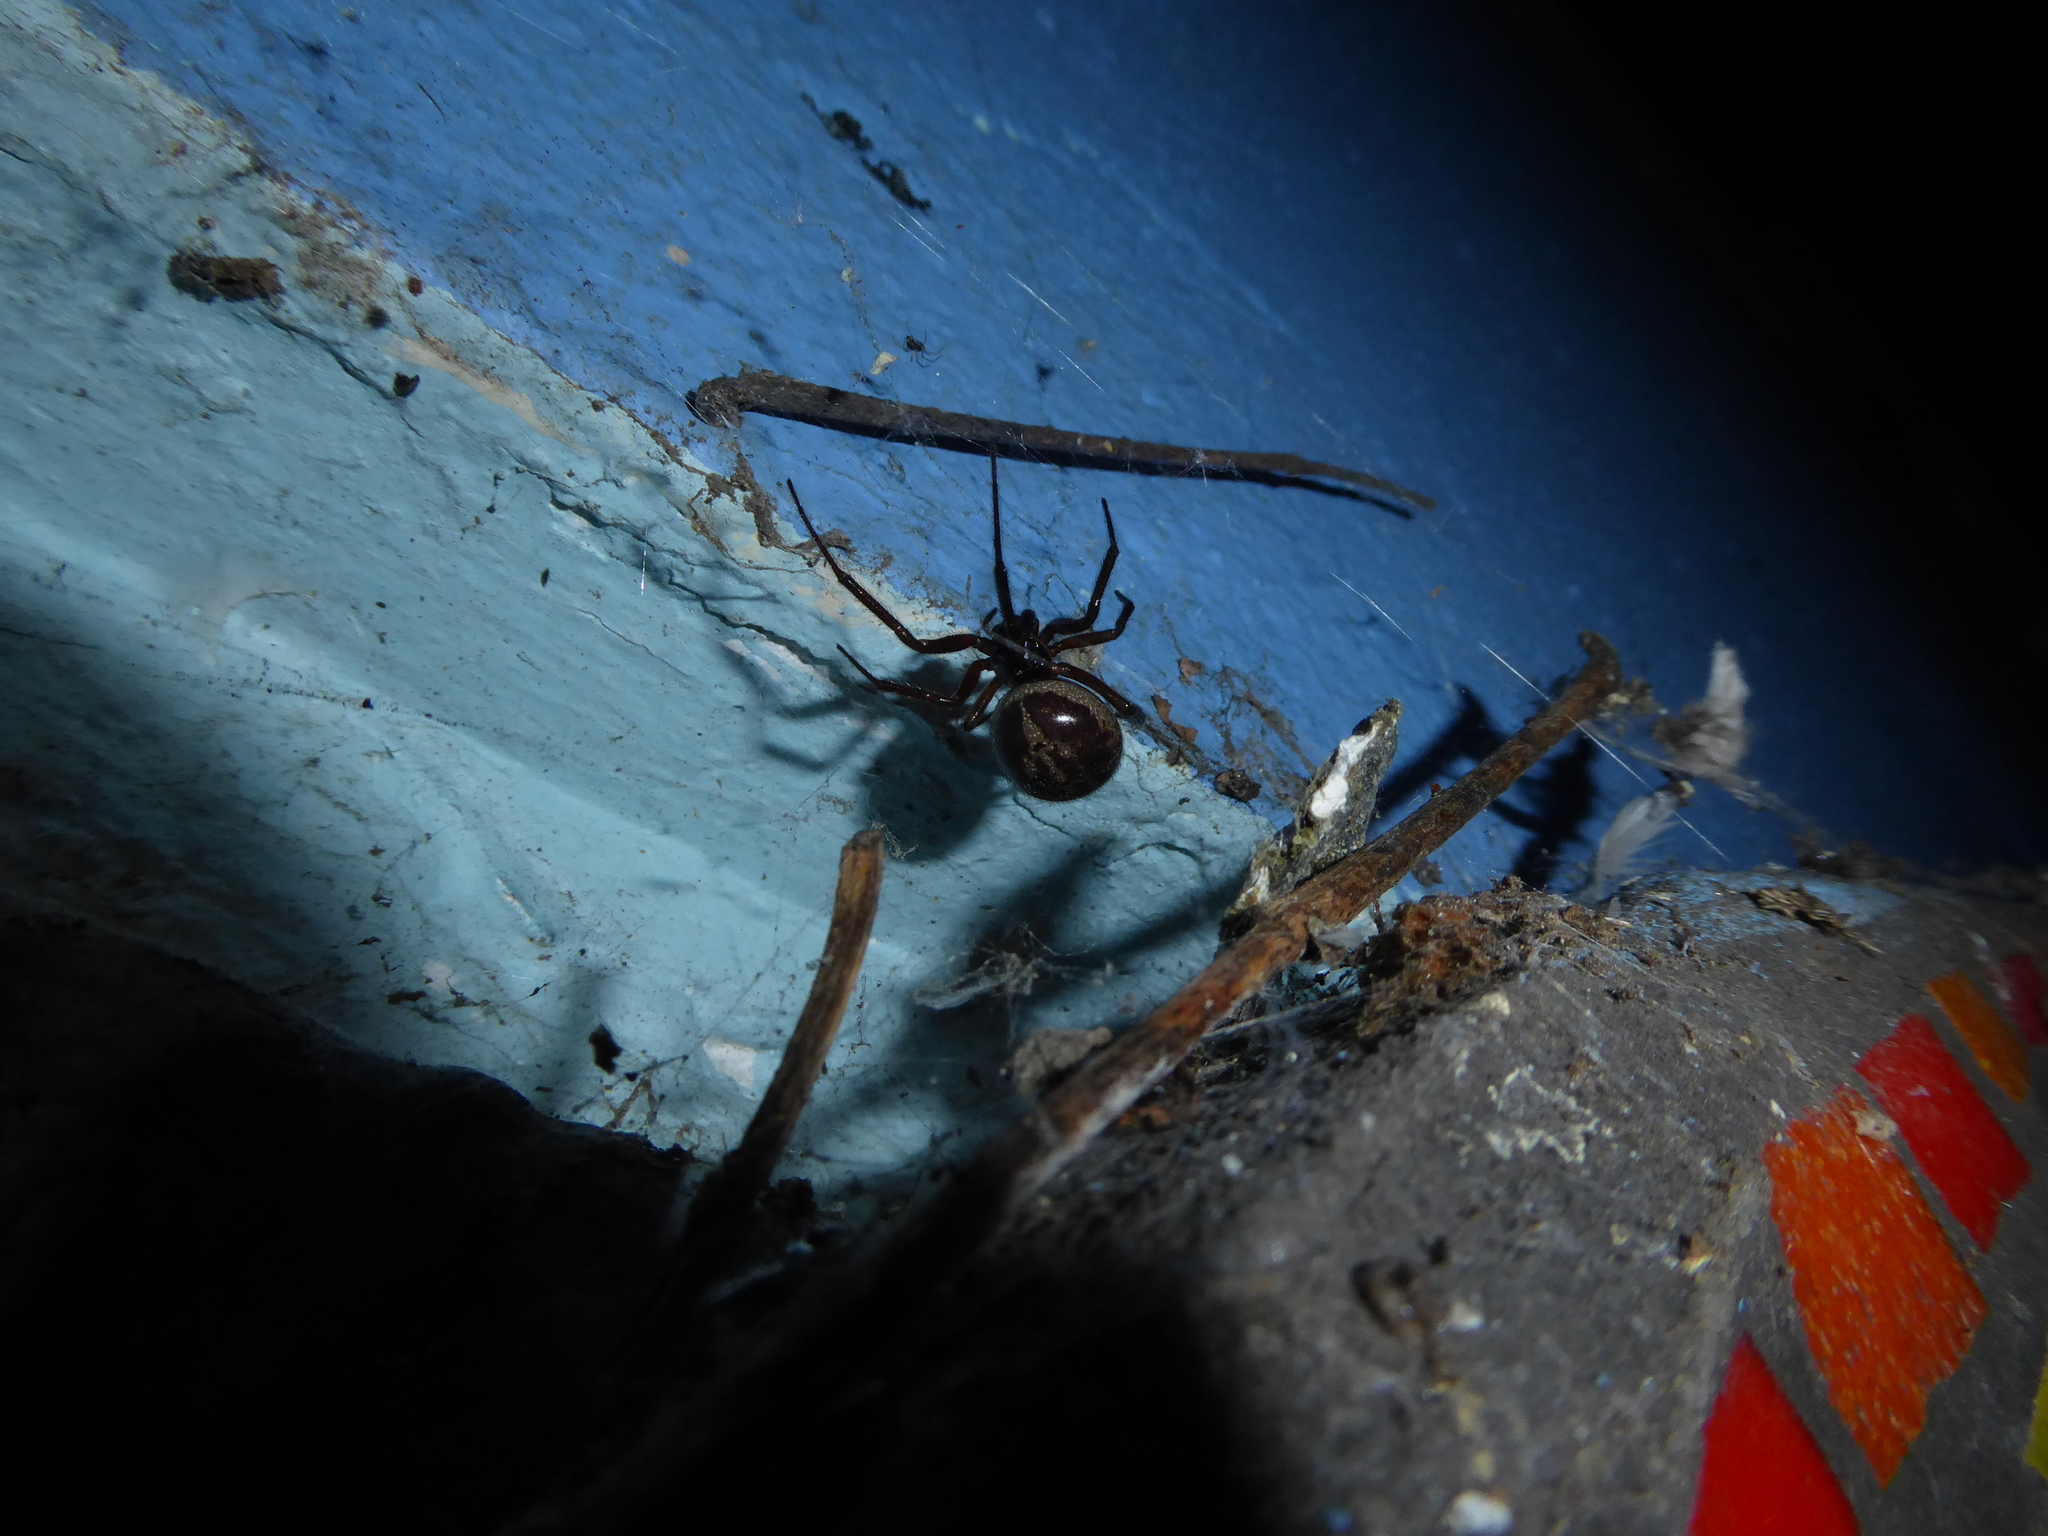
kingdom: Animalia
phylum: Arthropoda
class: Arachnida
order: Araneae
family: Theridiidae
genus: Steatoda
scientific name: Steatoda nobilis
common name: Cobweb weaver
